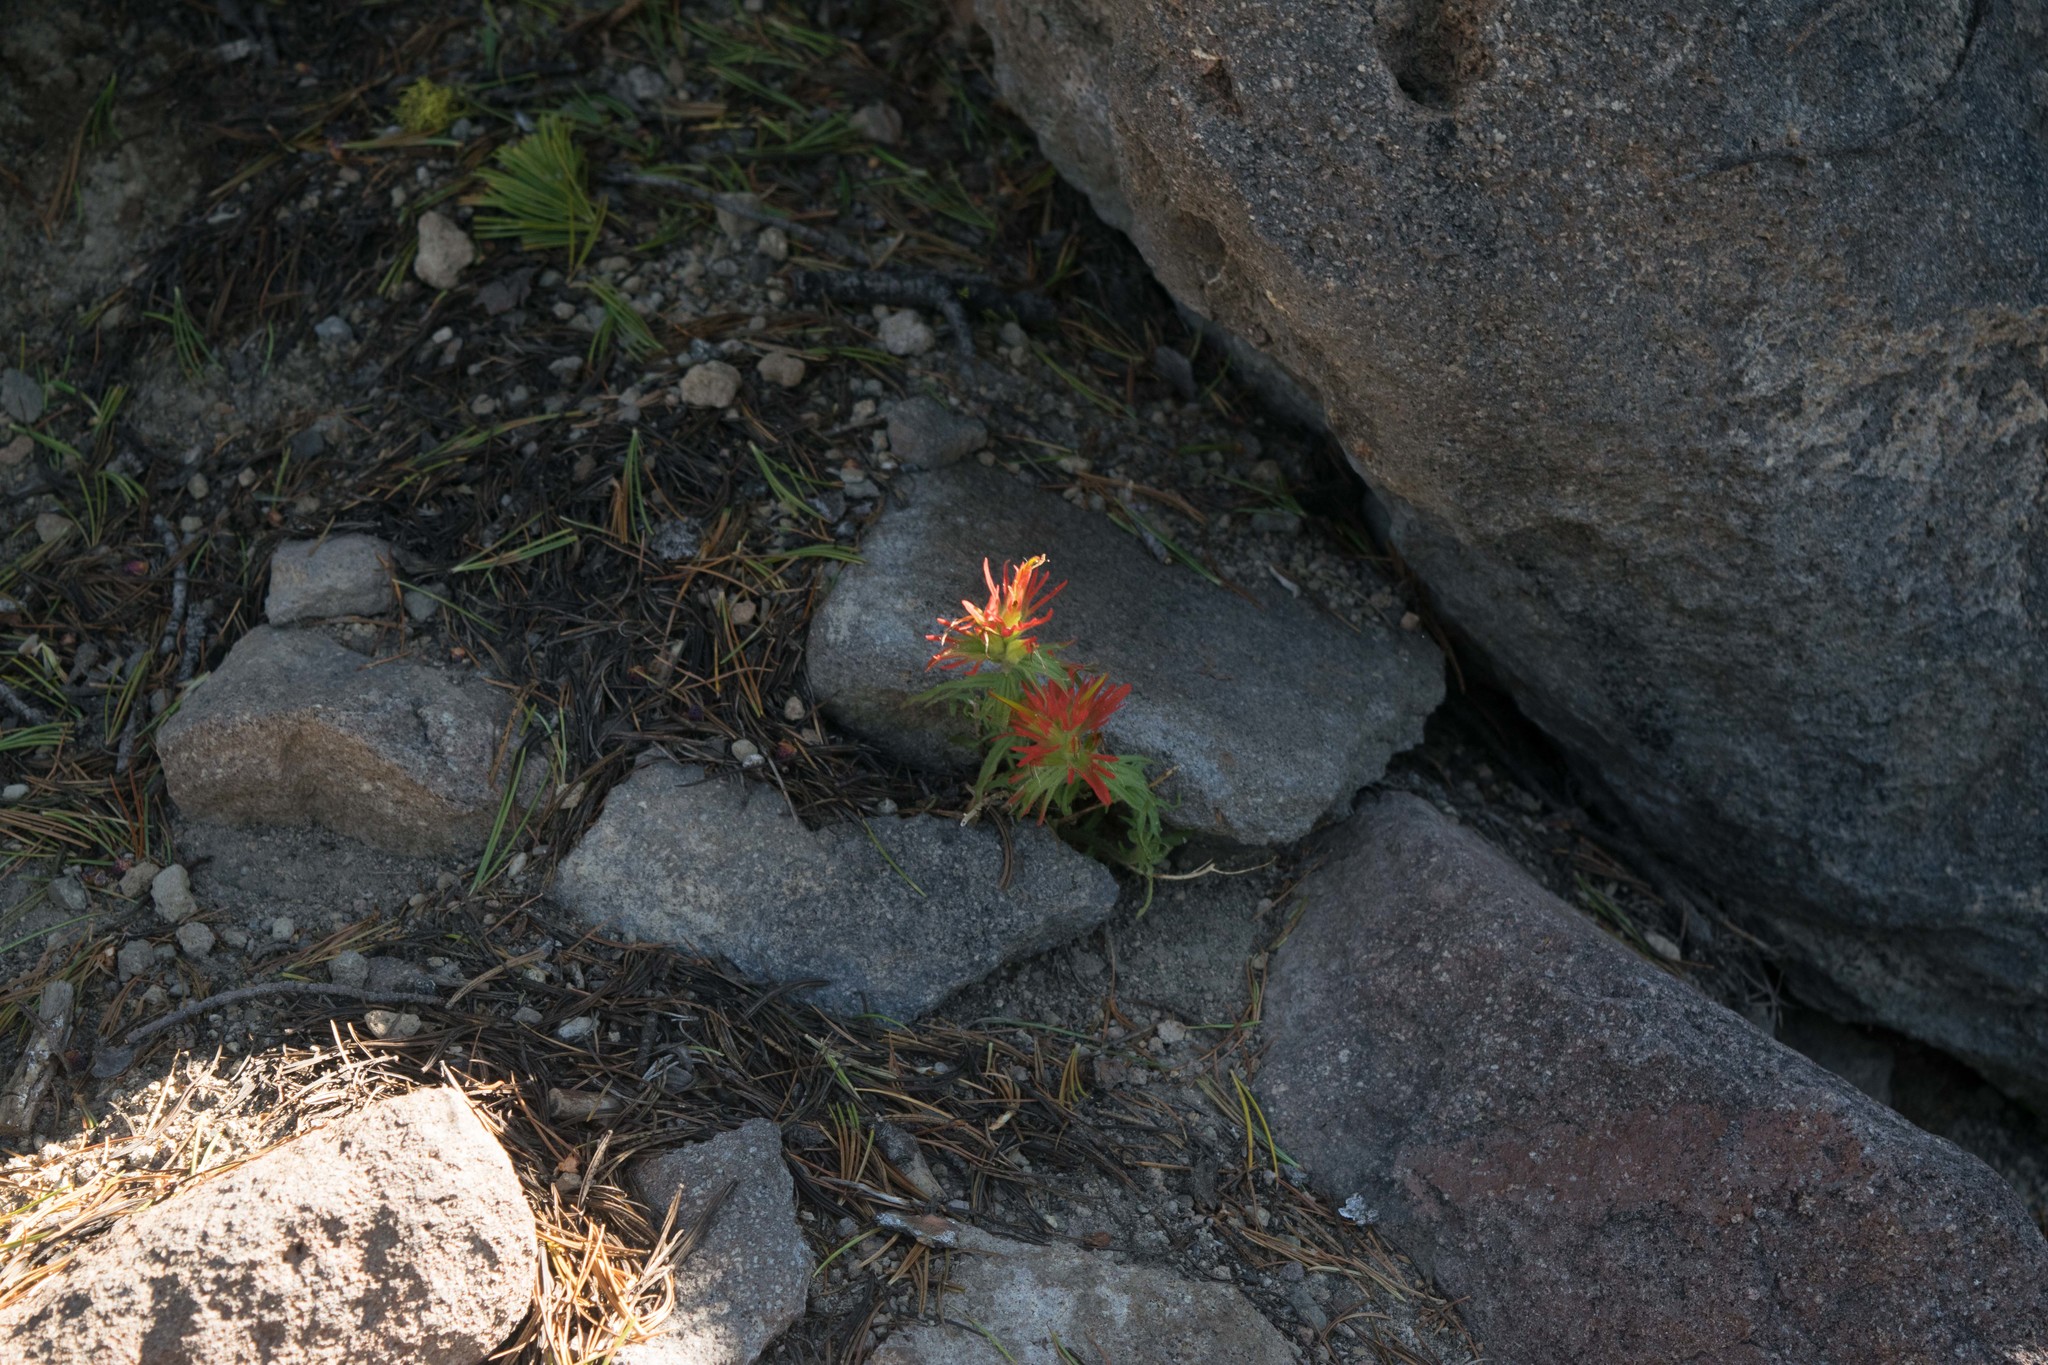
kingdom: Plantae
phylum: Tracheophyta
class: Magnoliopsida
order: Lamiales
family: Orobanchaceae
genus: Castilleja
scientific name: Castilleja applegatei
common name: Wavy-leaf paintbrush
